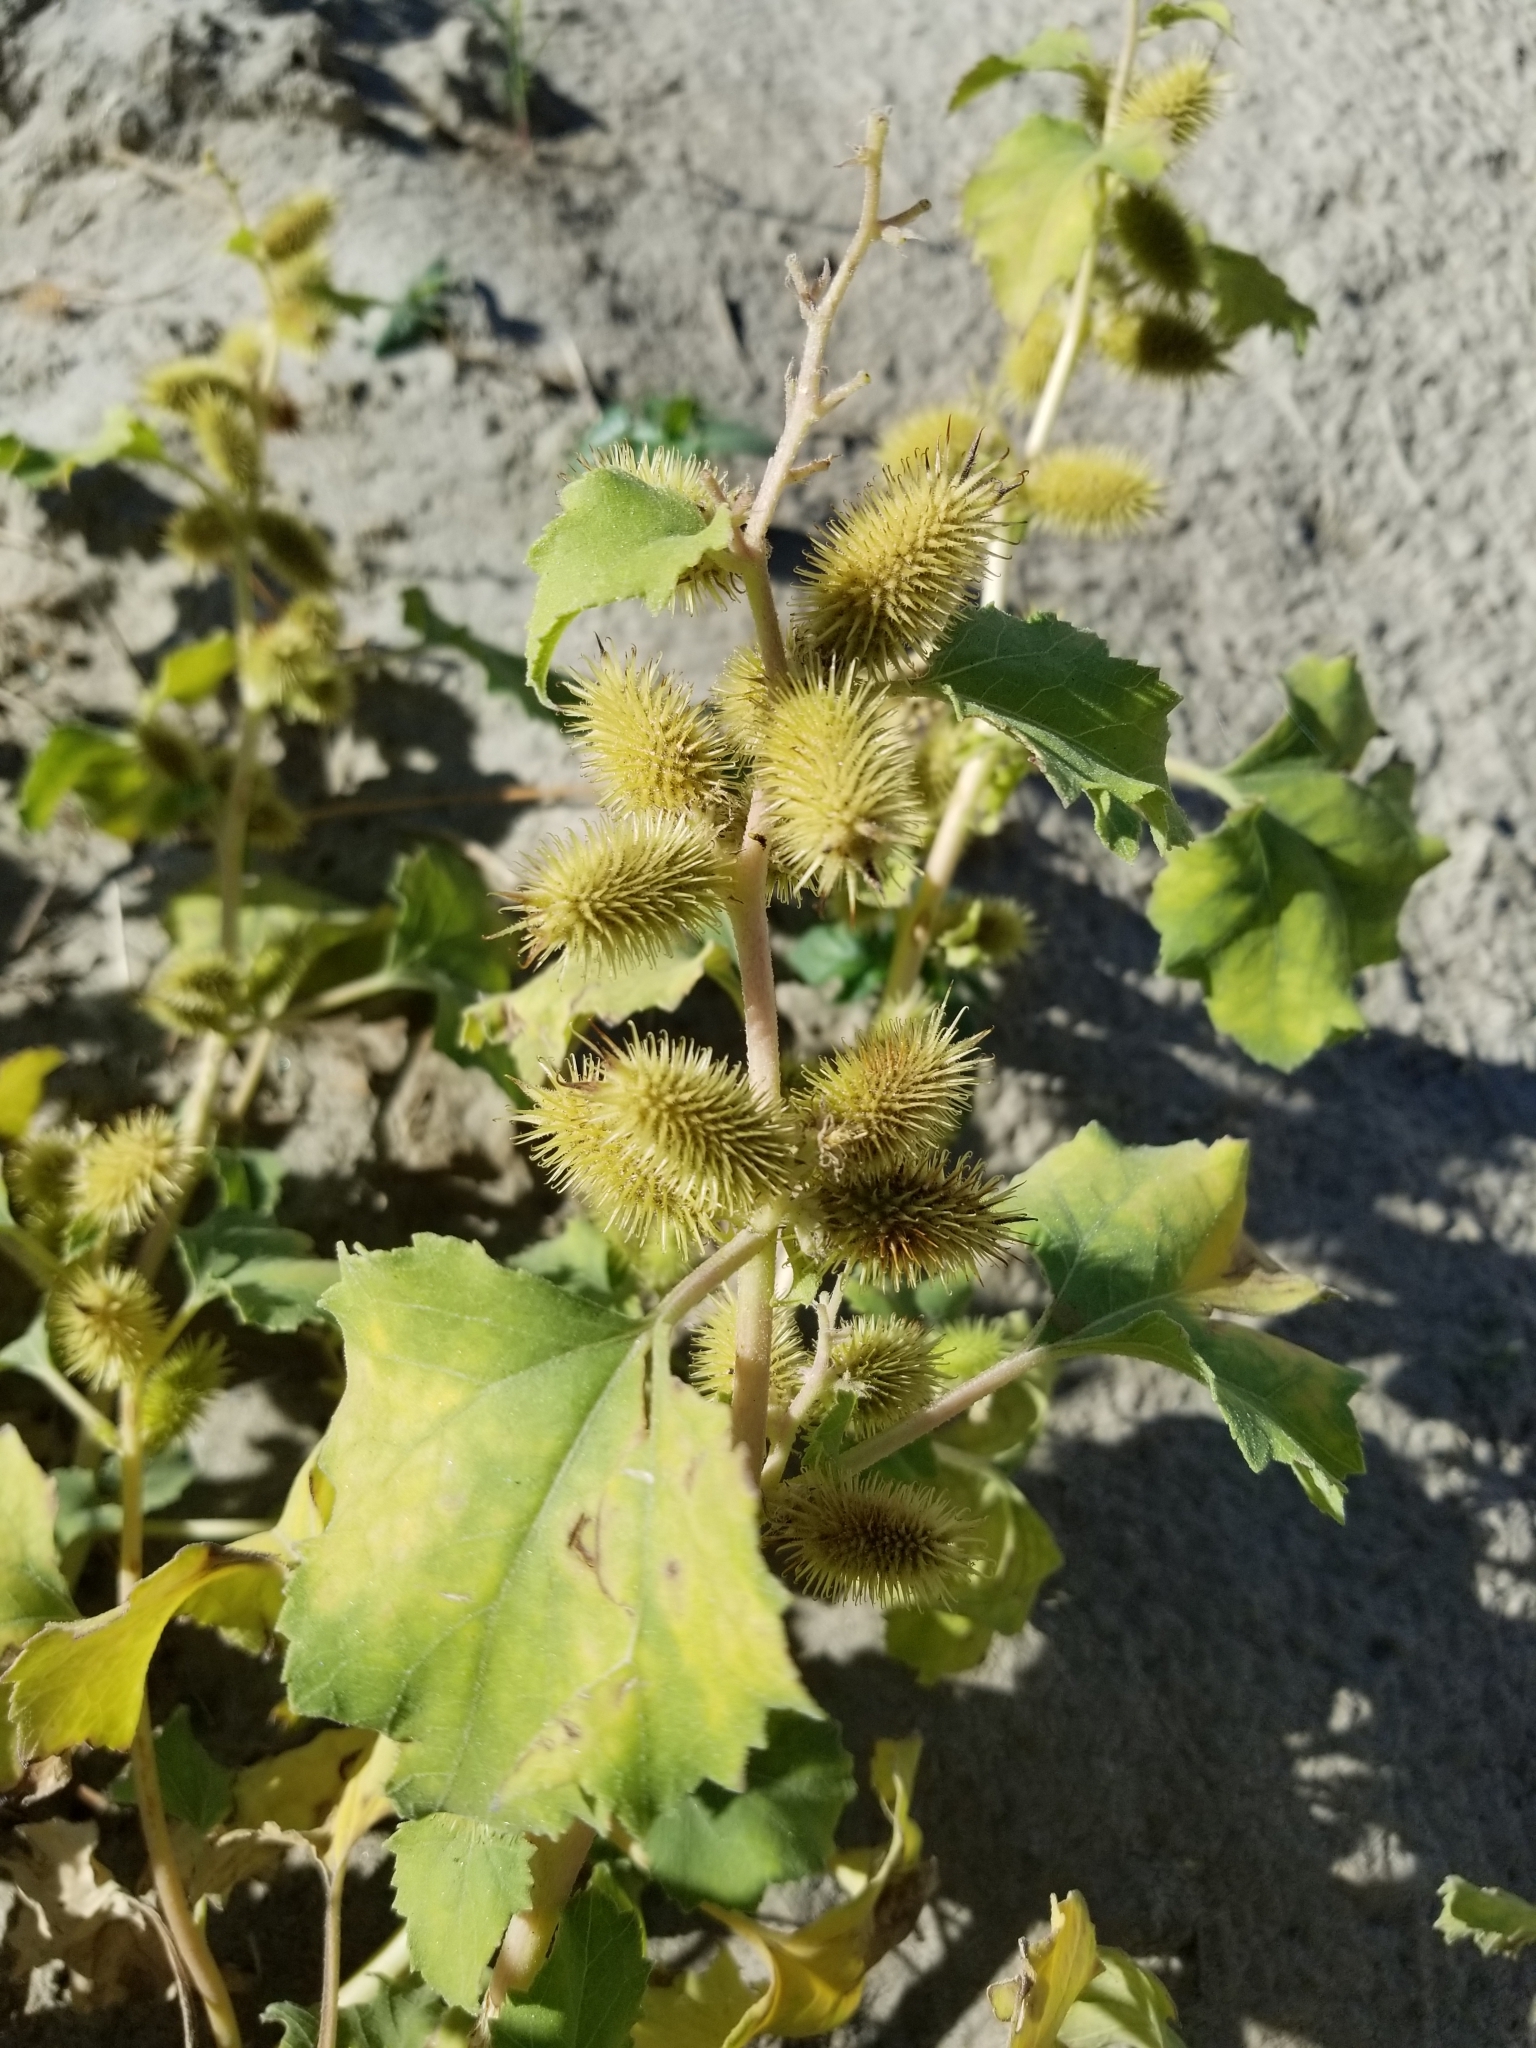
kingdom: Plantae
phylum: Tracheophyta
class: Magnoliopsida
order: Asterales
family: Asteraceae
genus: Xanthium
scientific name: Xanthium strumarium
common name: Rough cocklebur
